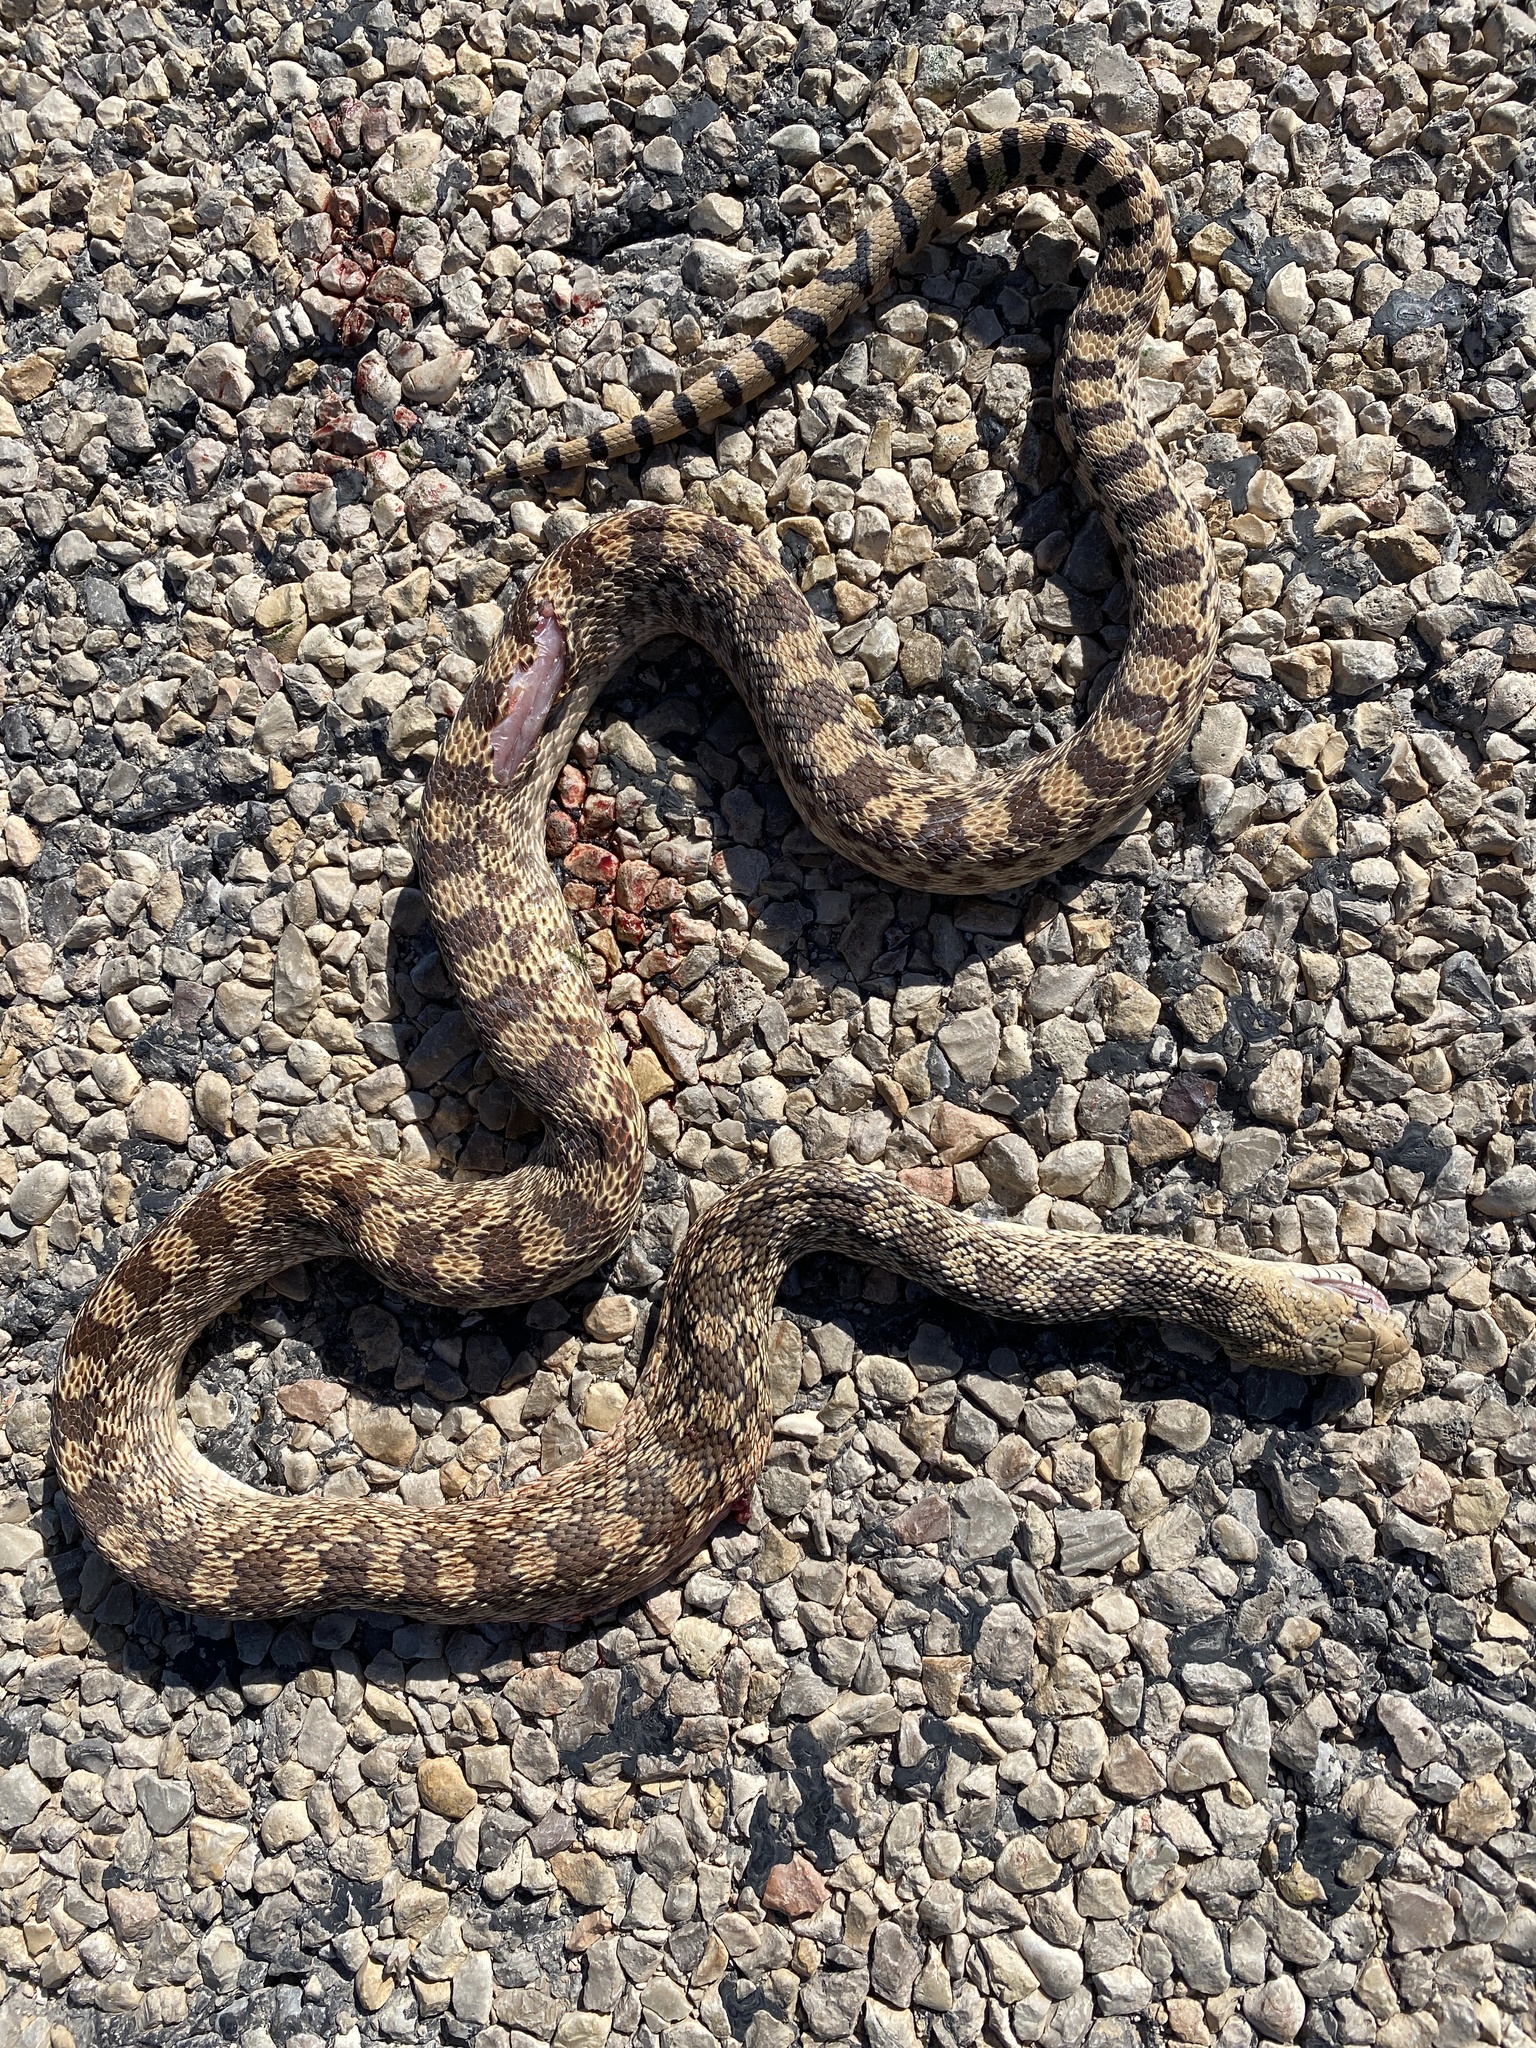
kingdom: Animalia
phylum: Chordata
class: Squamata
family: Colubridae
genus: Pituophis
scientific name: Pituophis catenifer
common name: Gopher snake
